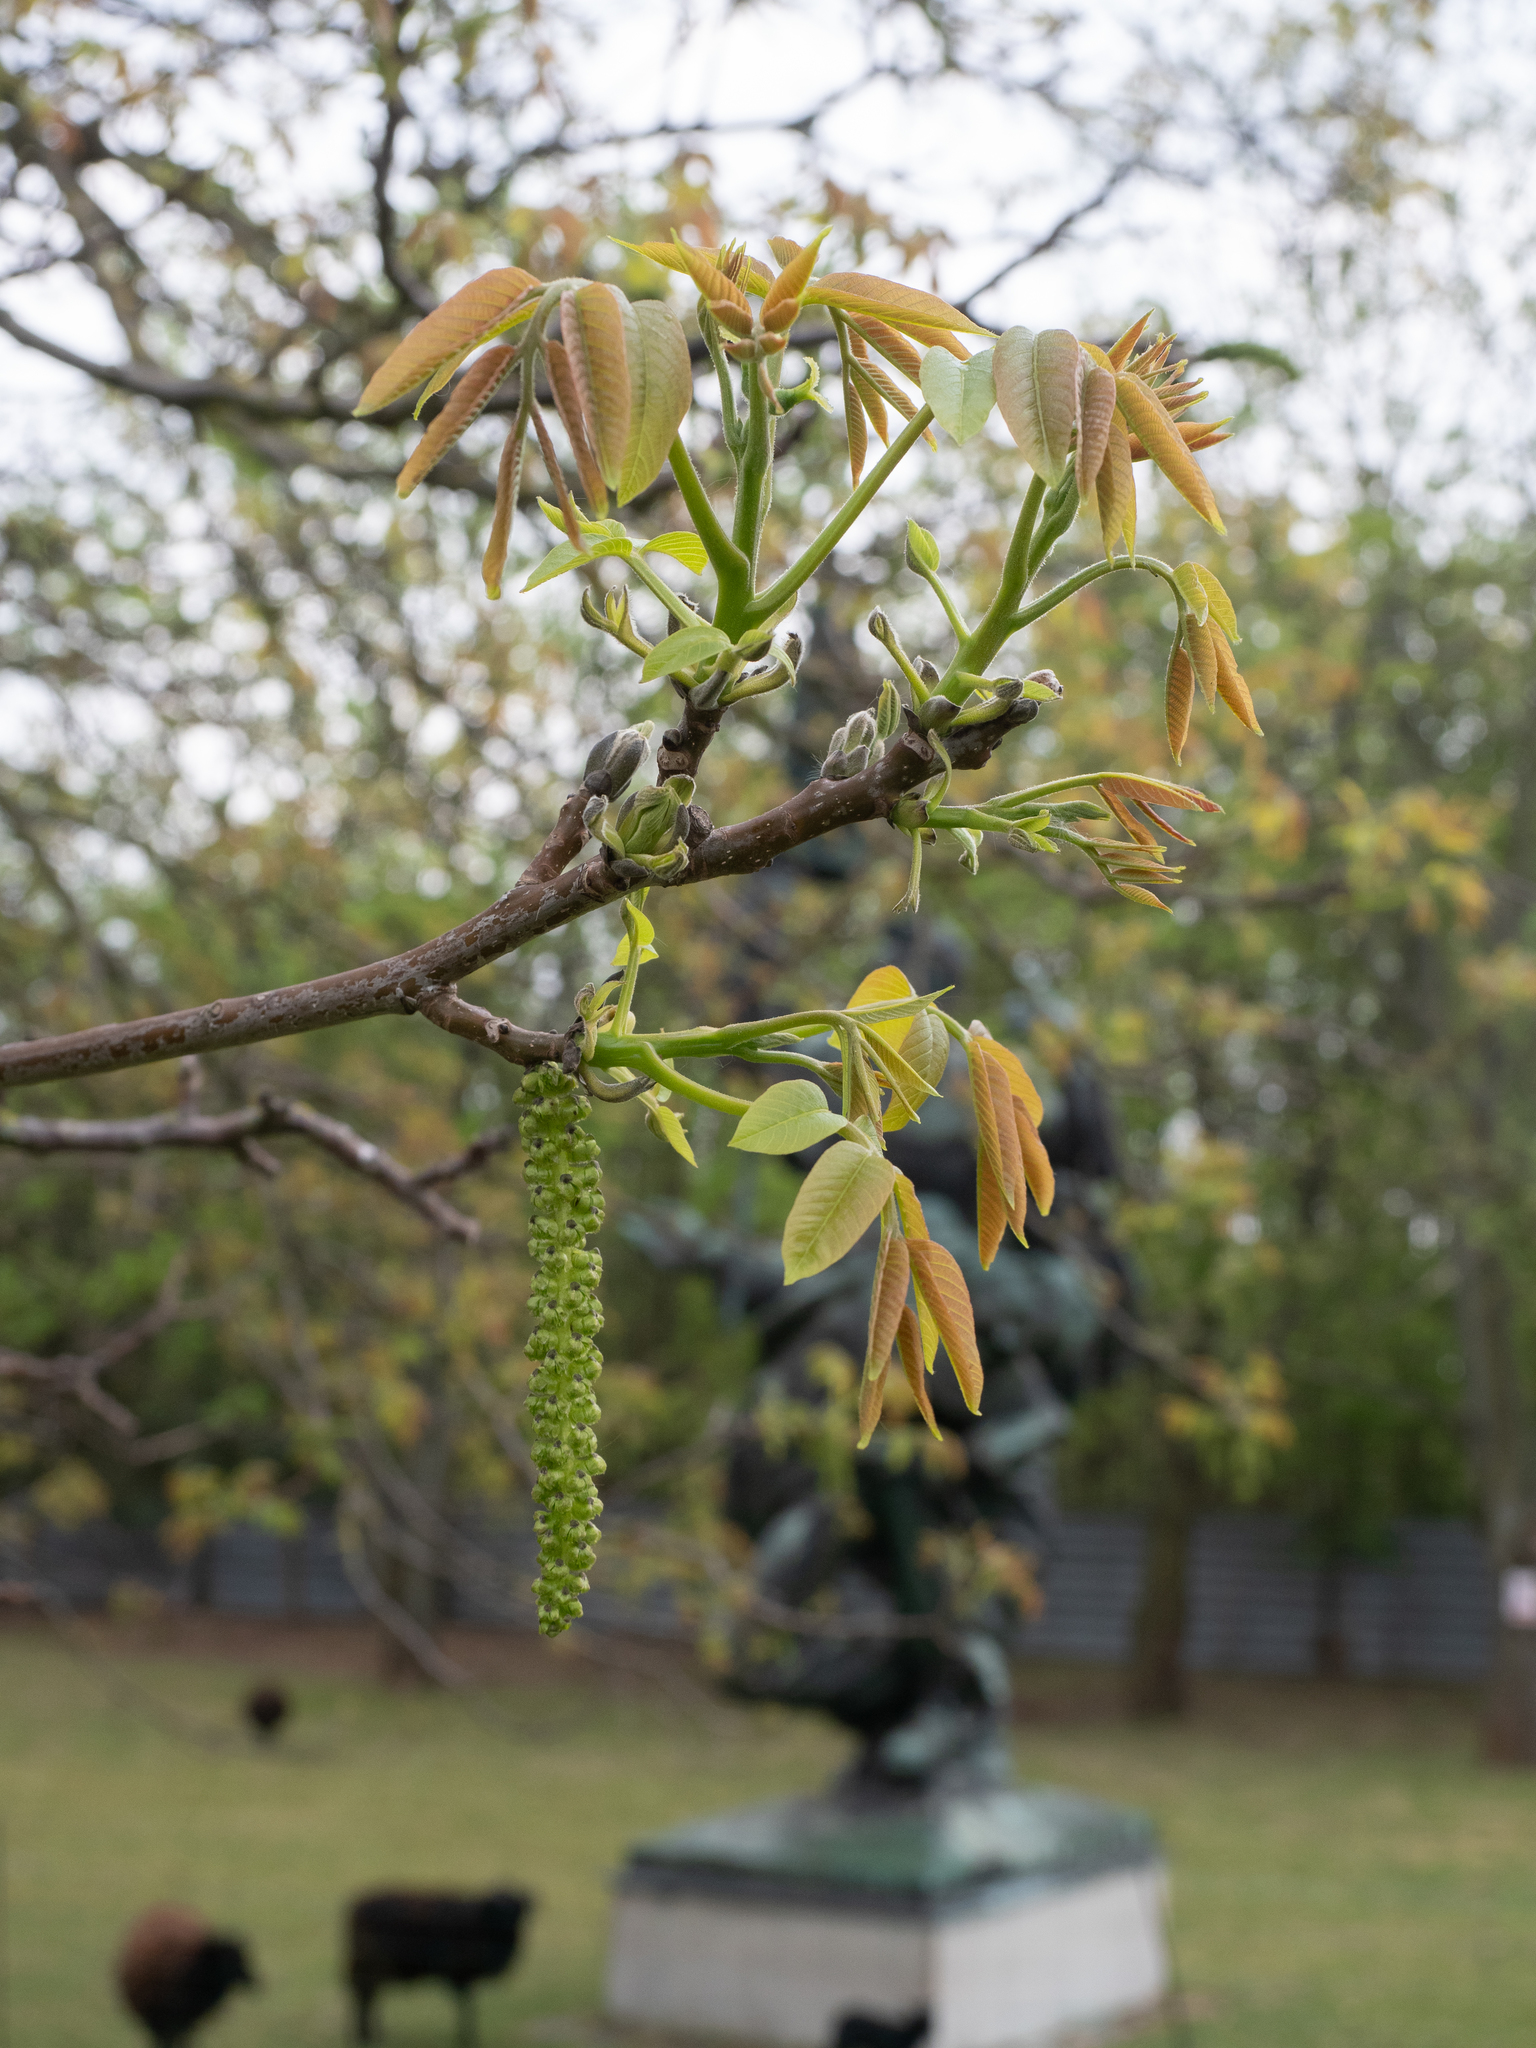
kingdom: Plantae
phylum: Tracheophyta
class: Magnoliopsida
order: Fagales
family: Juglandaceae
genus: Juglans
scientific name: Juglans regia
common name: Walnut
